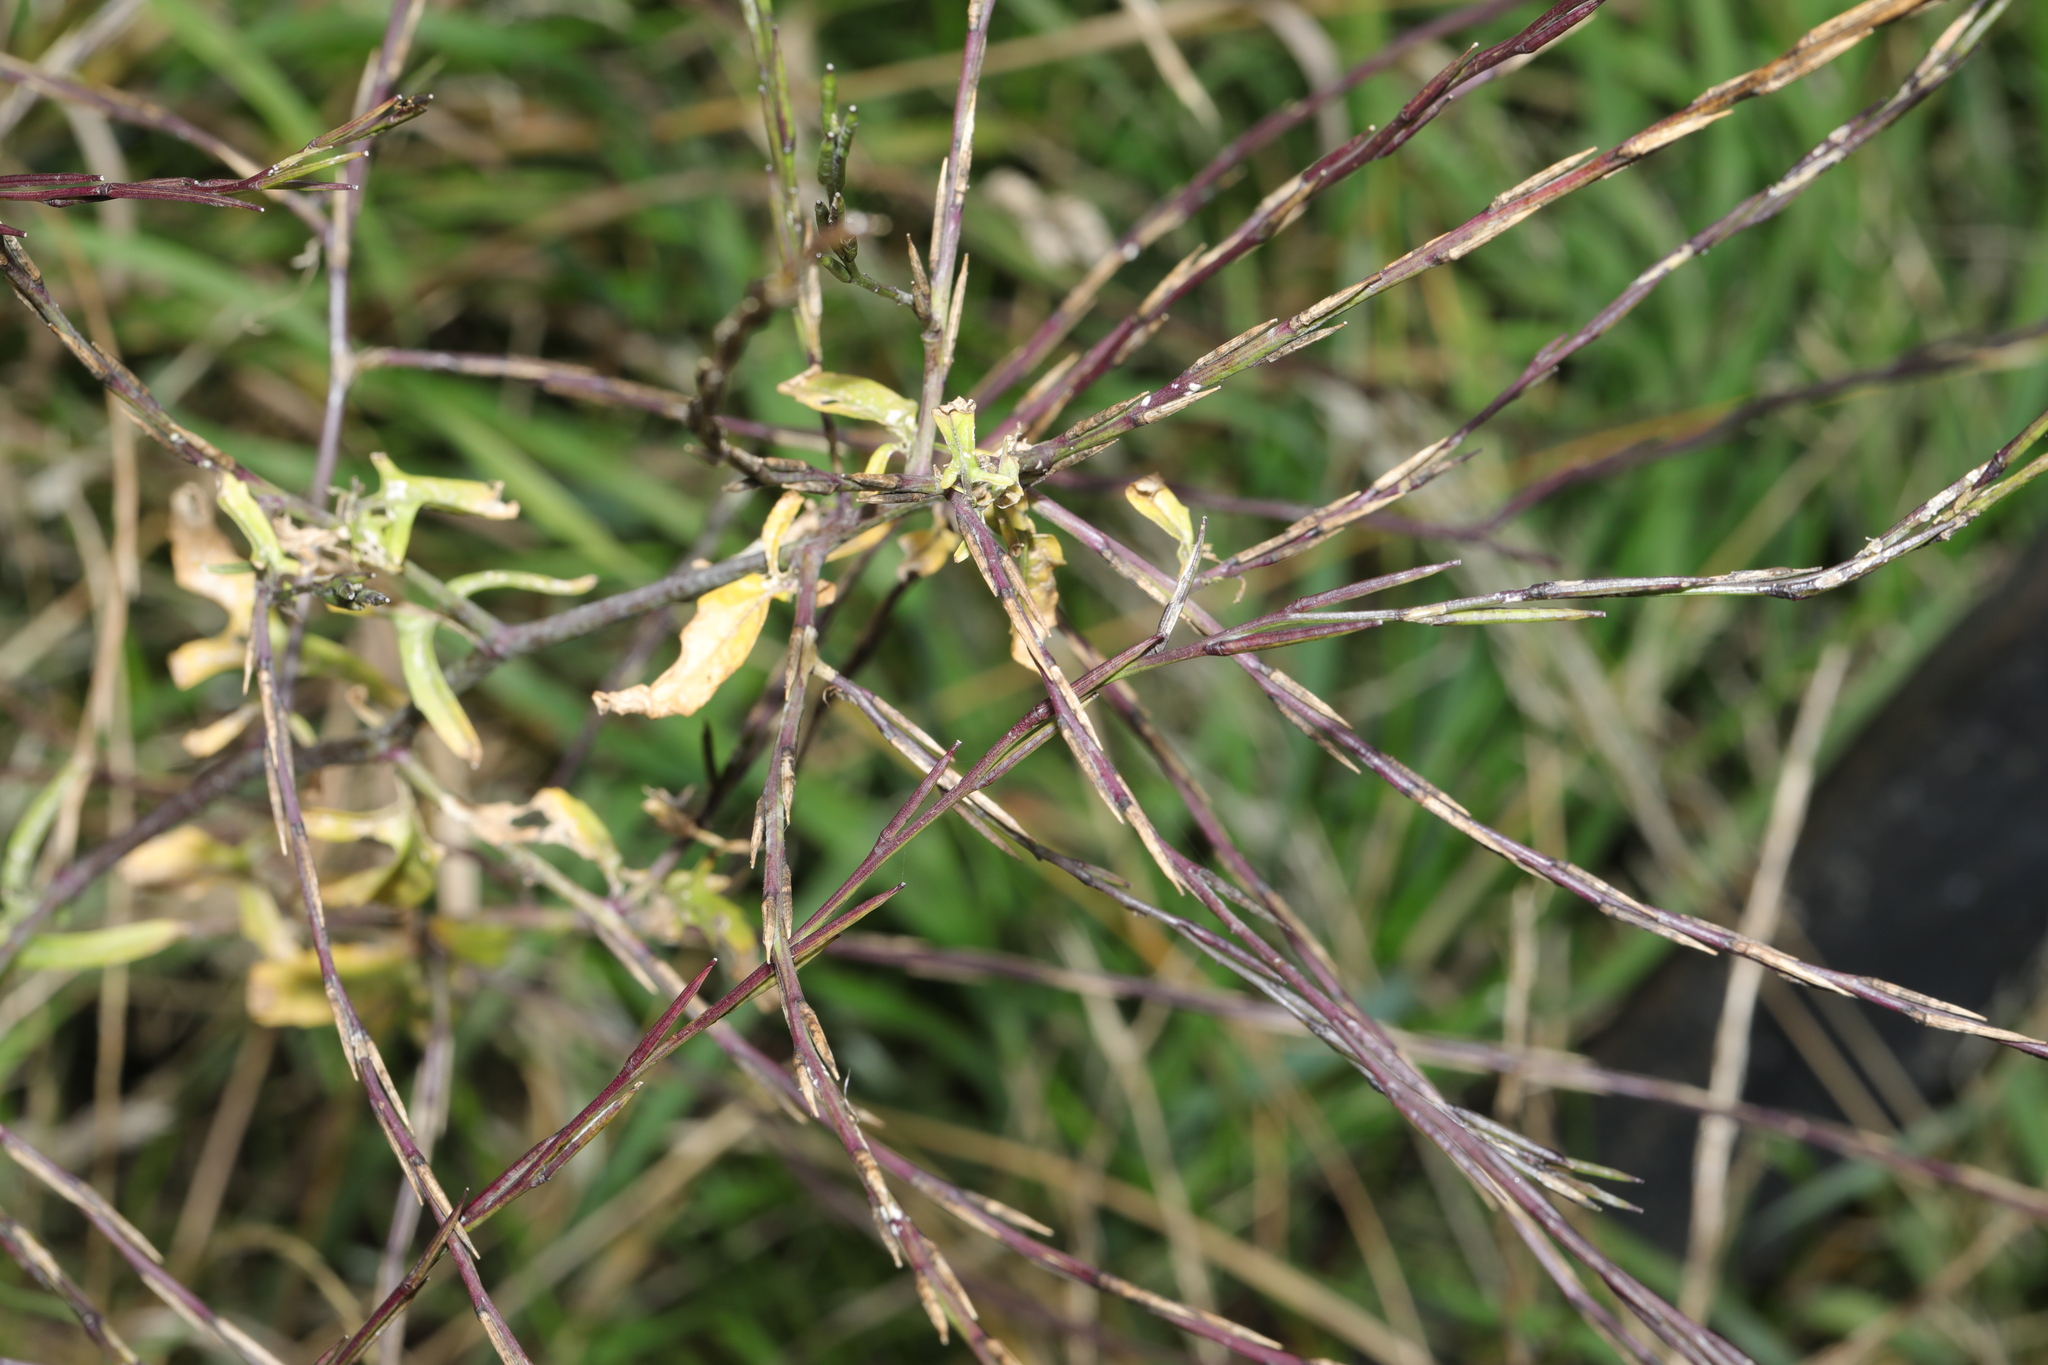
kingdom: Plantae
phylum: Tracheophyta
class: Magnoliopsida
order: Brassicales
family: Brassicaceae
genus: Sisymbrium
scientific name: Sisymbrium officinale
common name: Hedge mustard
